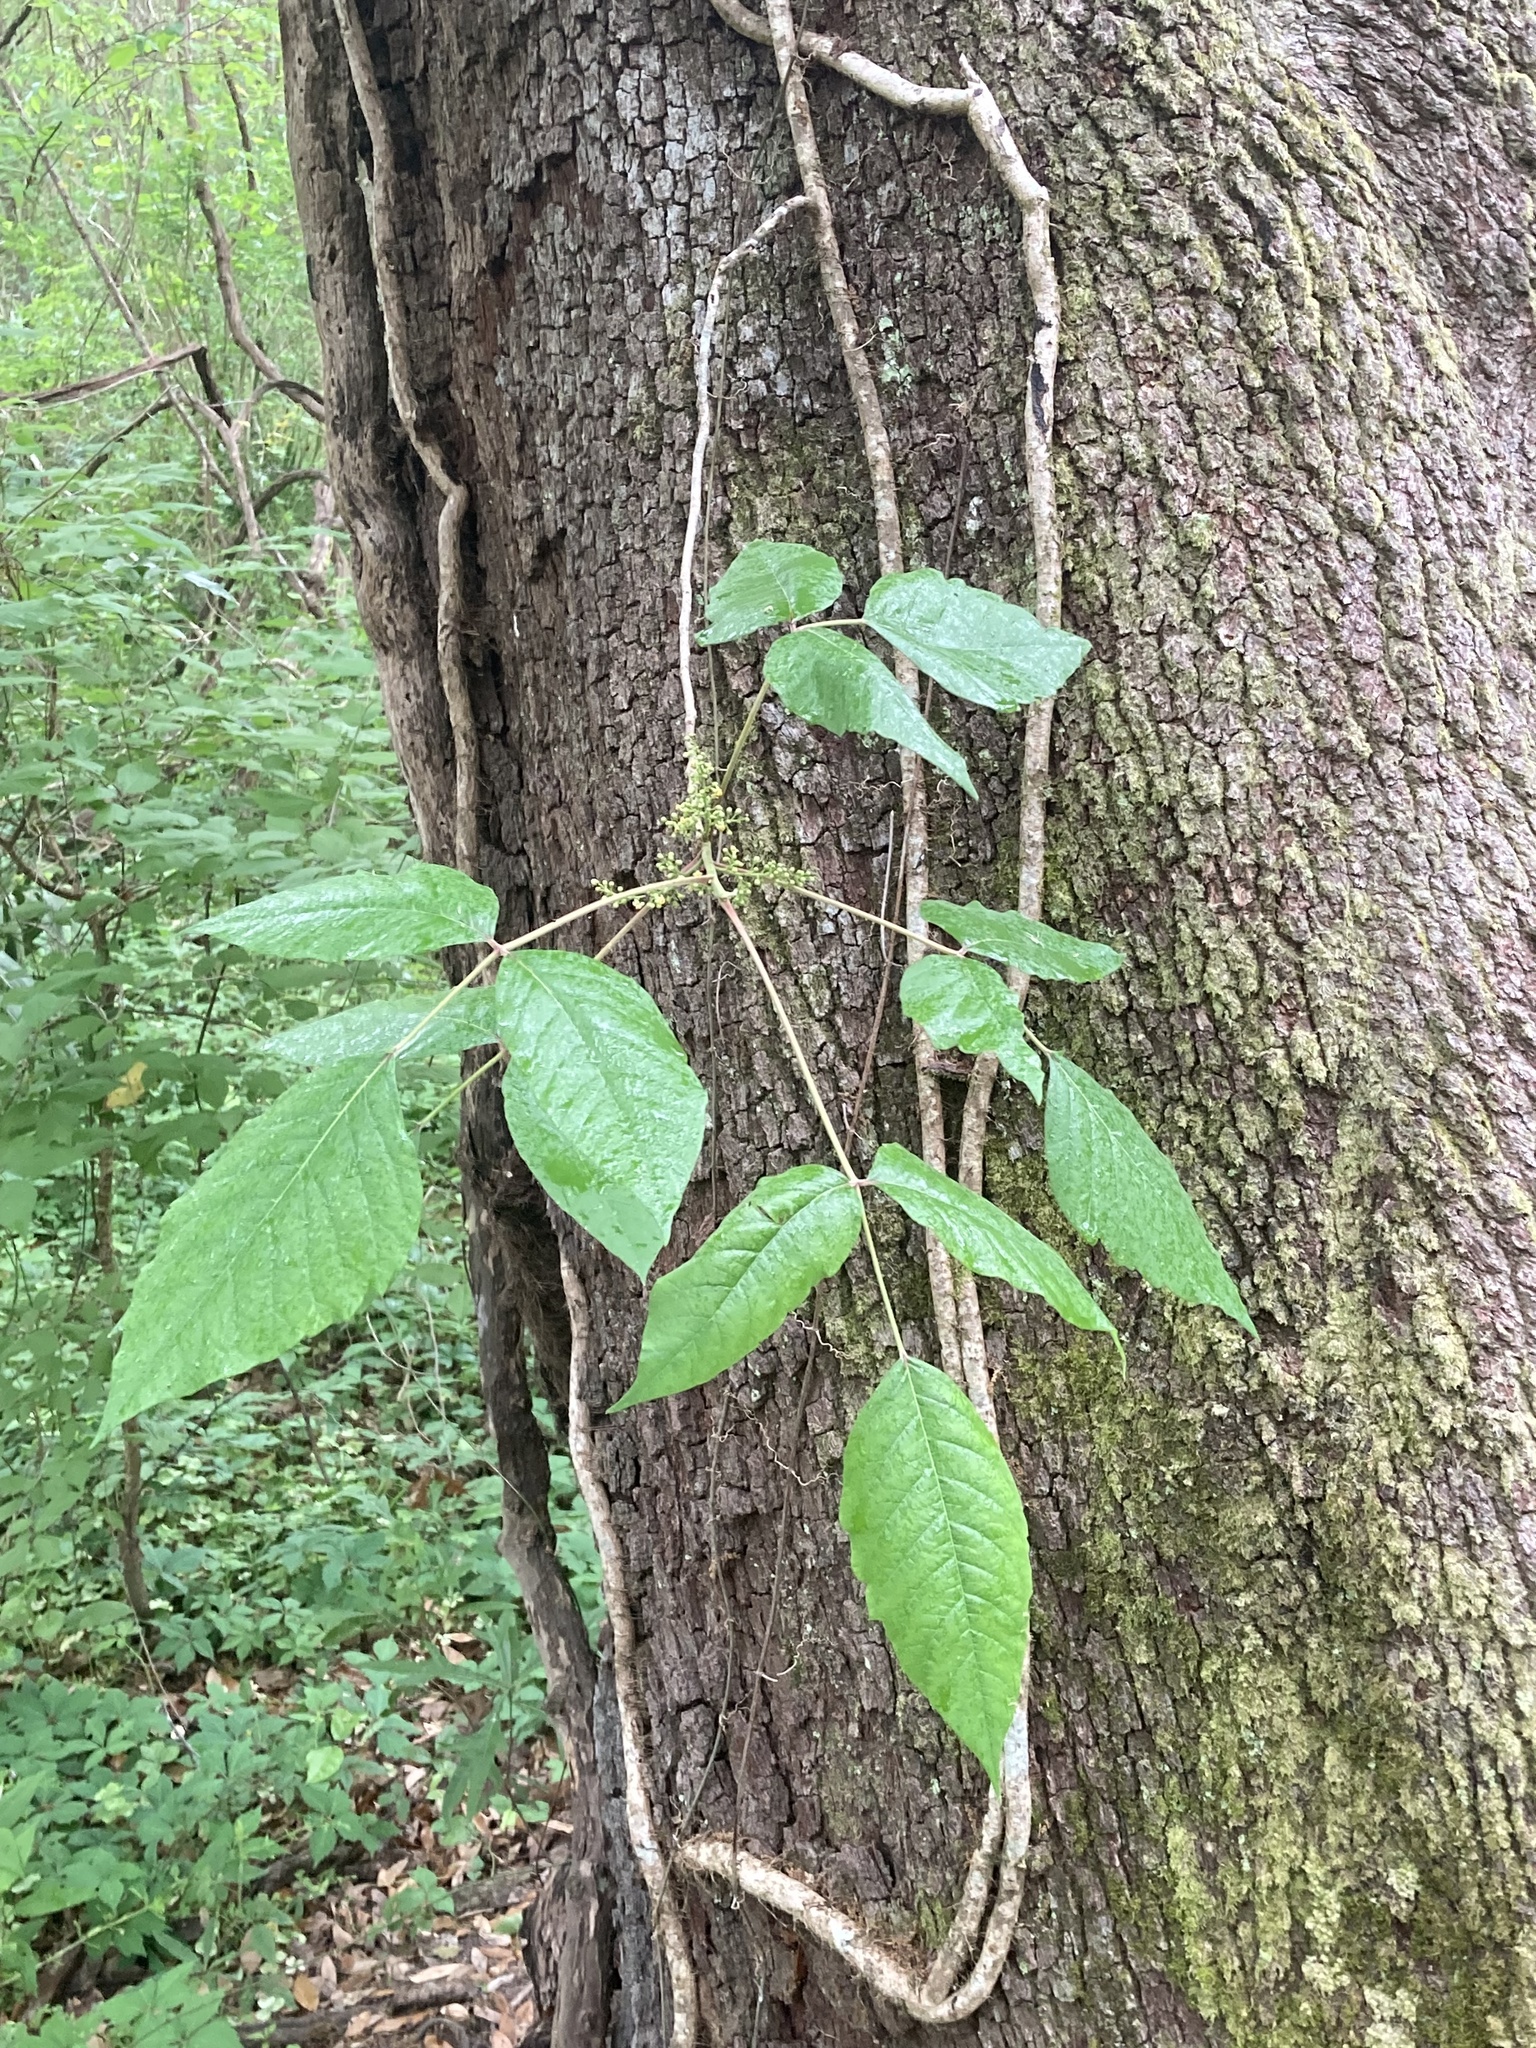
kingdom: Plantae
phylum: Tracheophyta
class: Magnoliopsida
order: Sapindales
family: Anacardiaceae
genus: Toxicodendron
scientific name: Toxicodendron radicans
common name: Poison ivy
